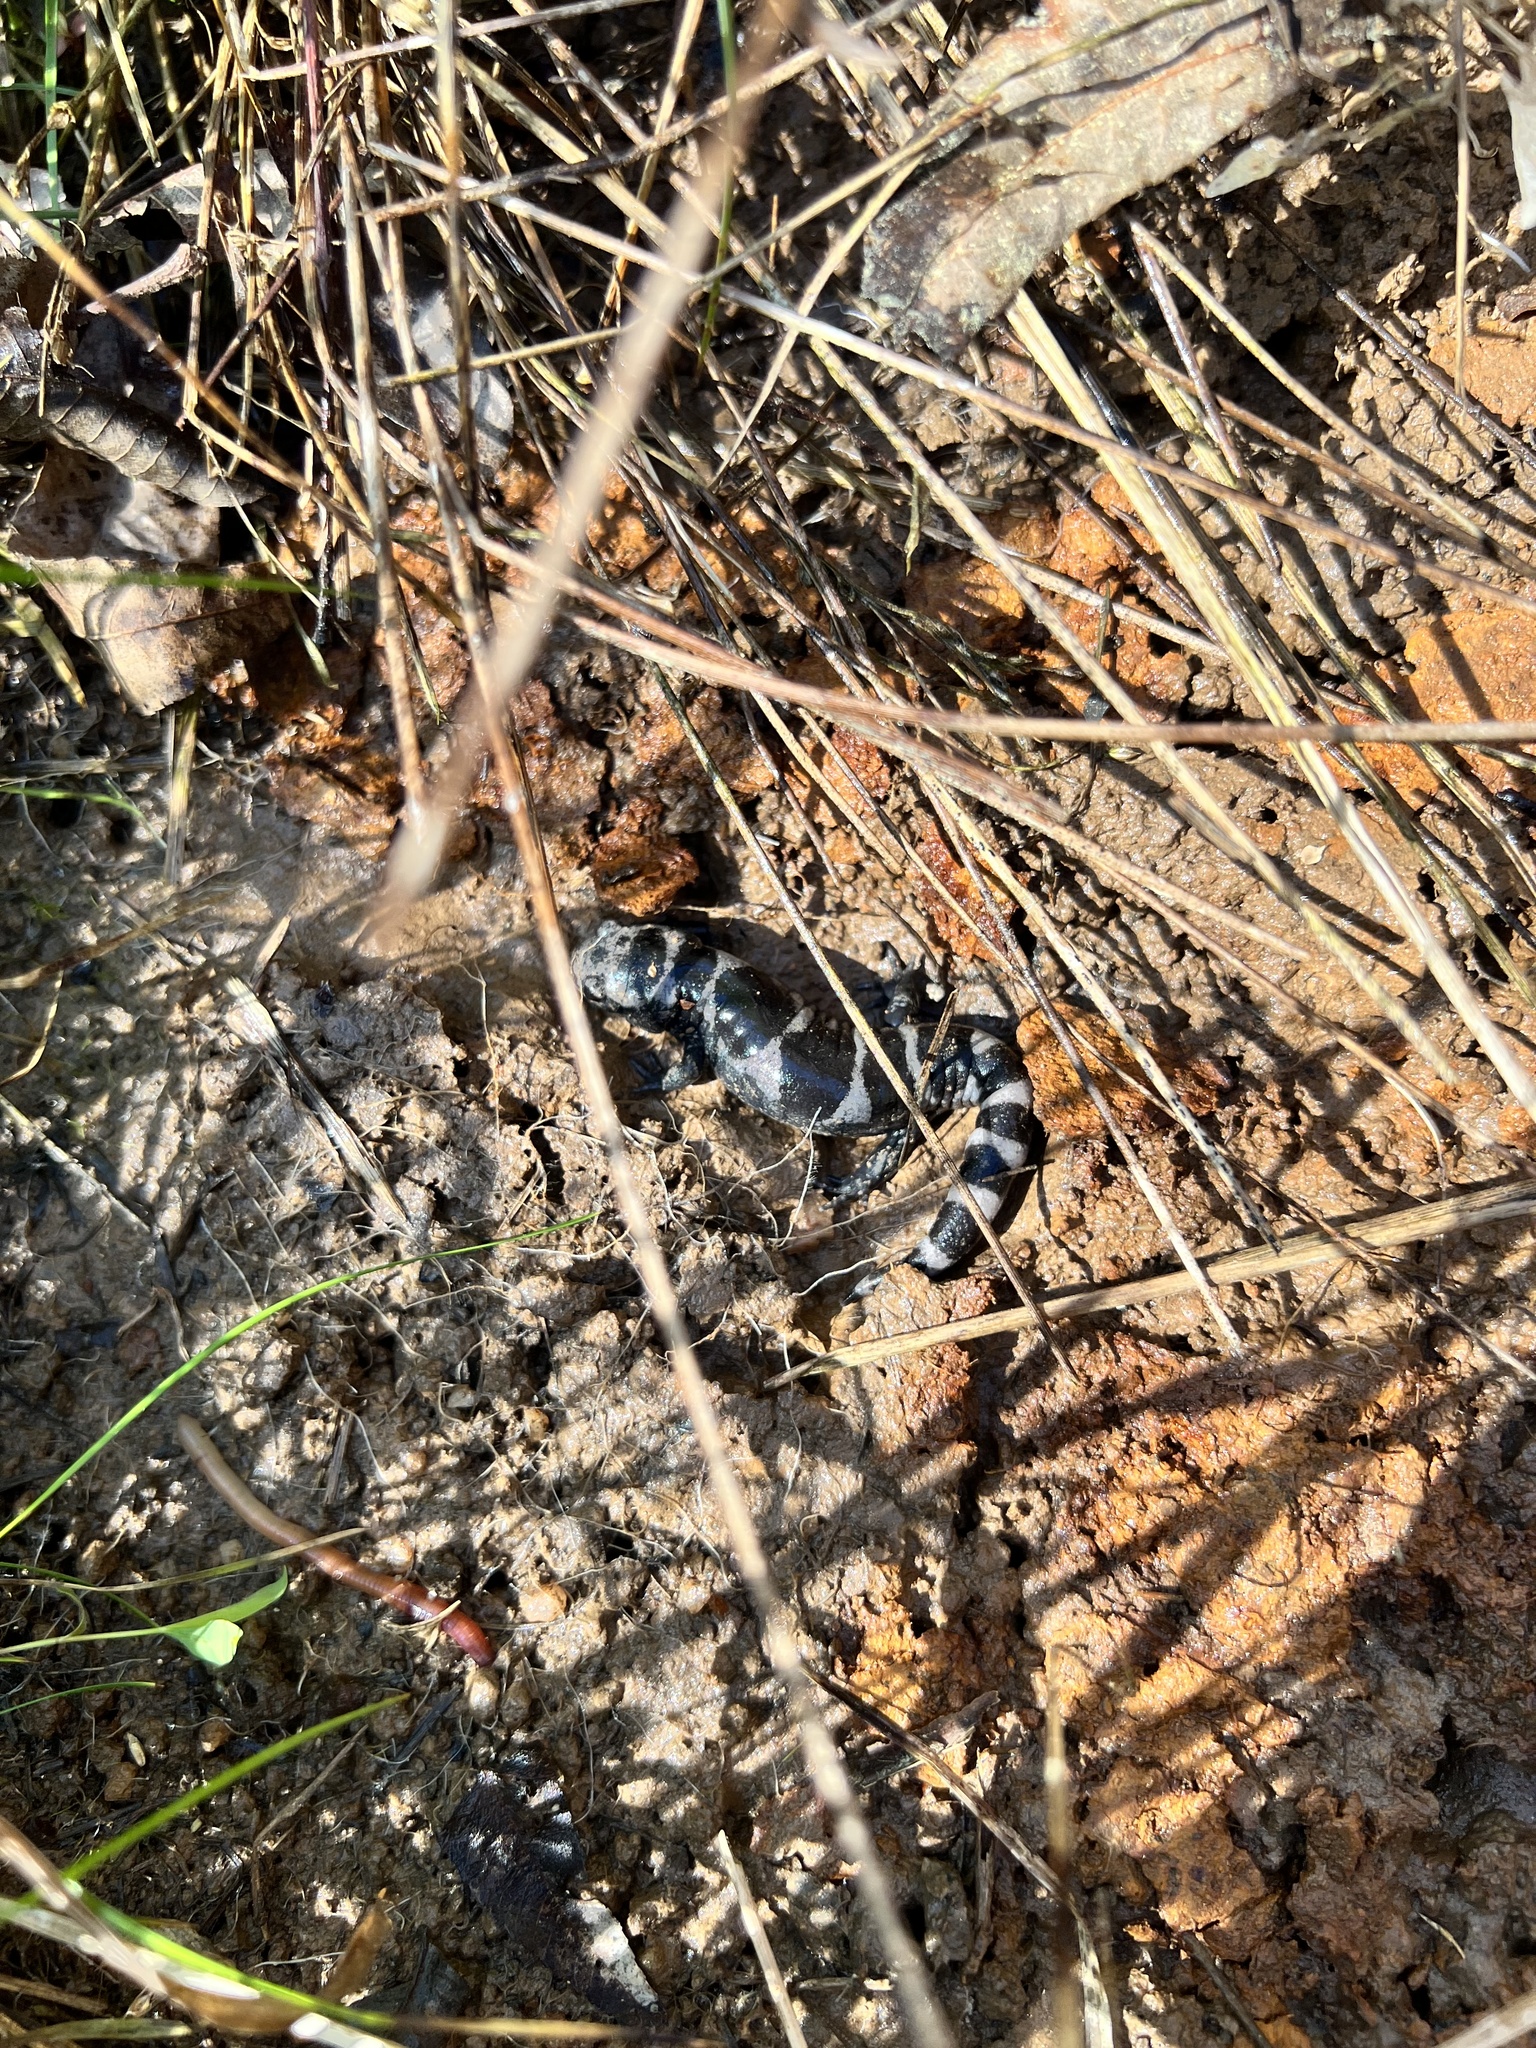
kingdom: Animalia
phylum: Chordata
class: Amphibia
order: Caudata
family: Ambystomatidae
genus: Ambystoma
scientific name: Ambystoma opacum
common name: Marbled salamander
